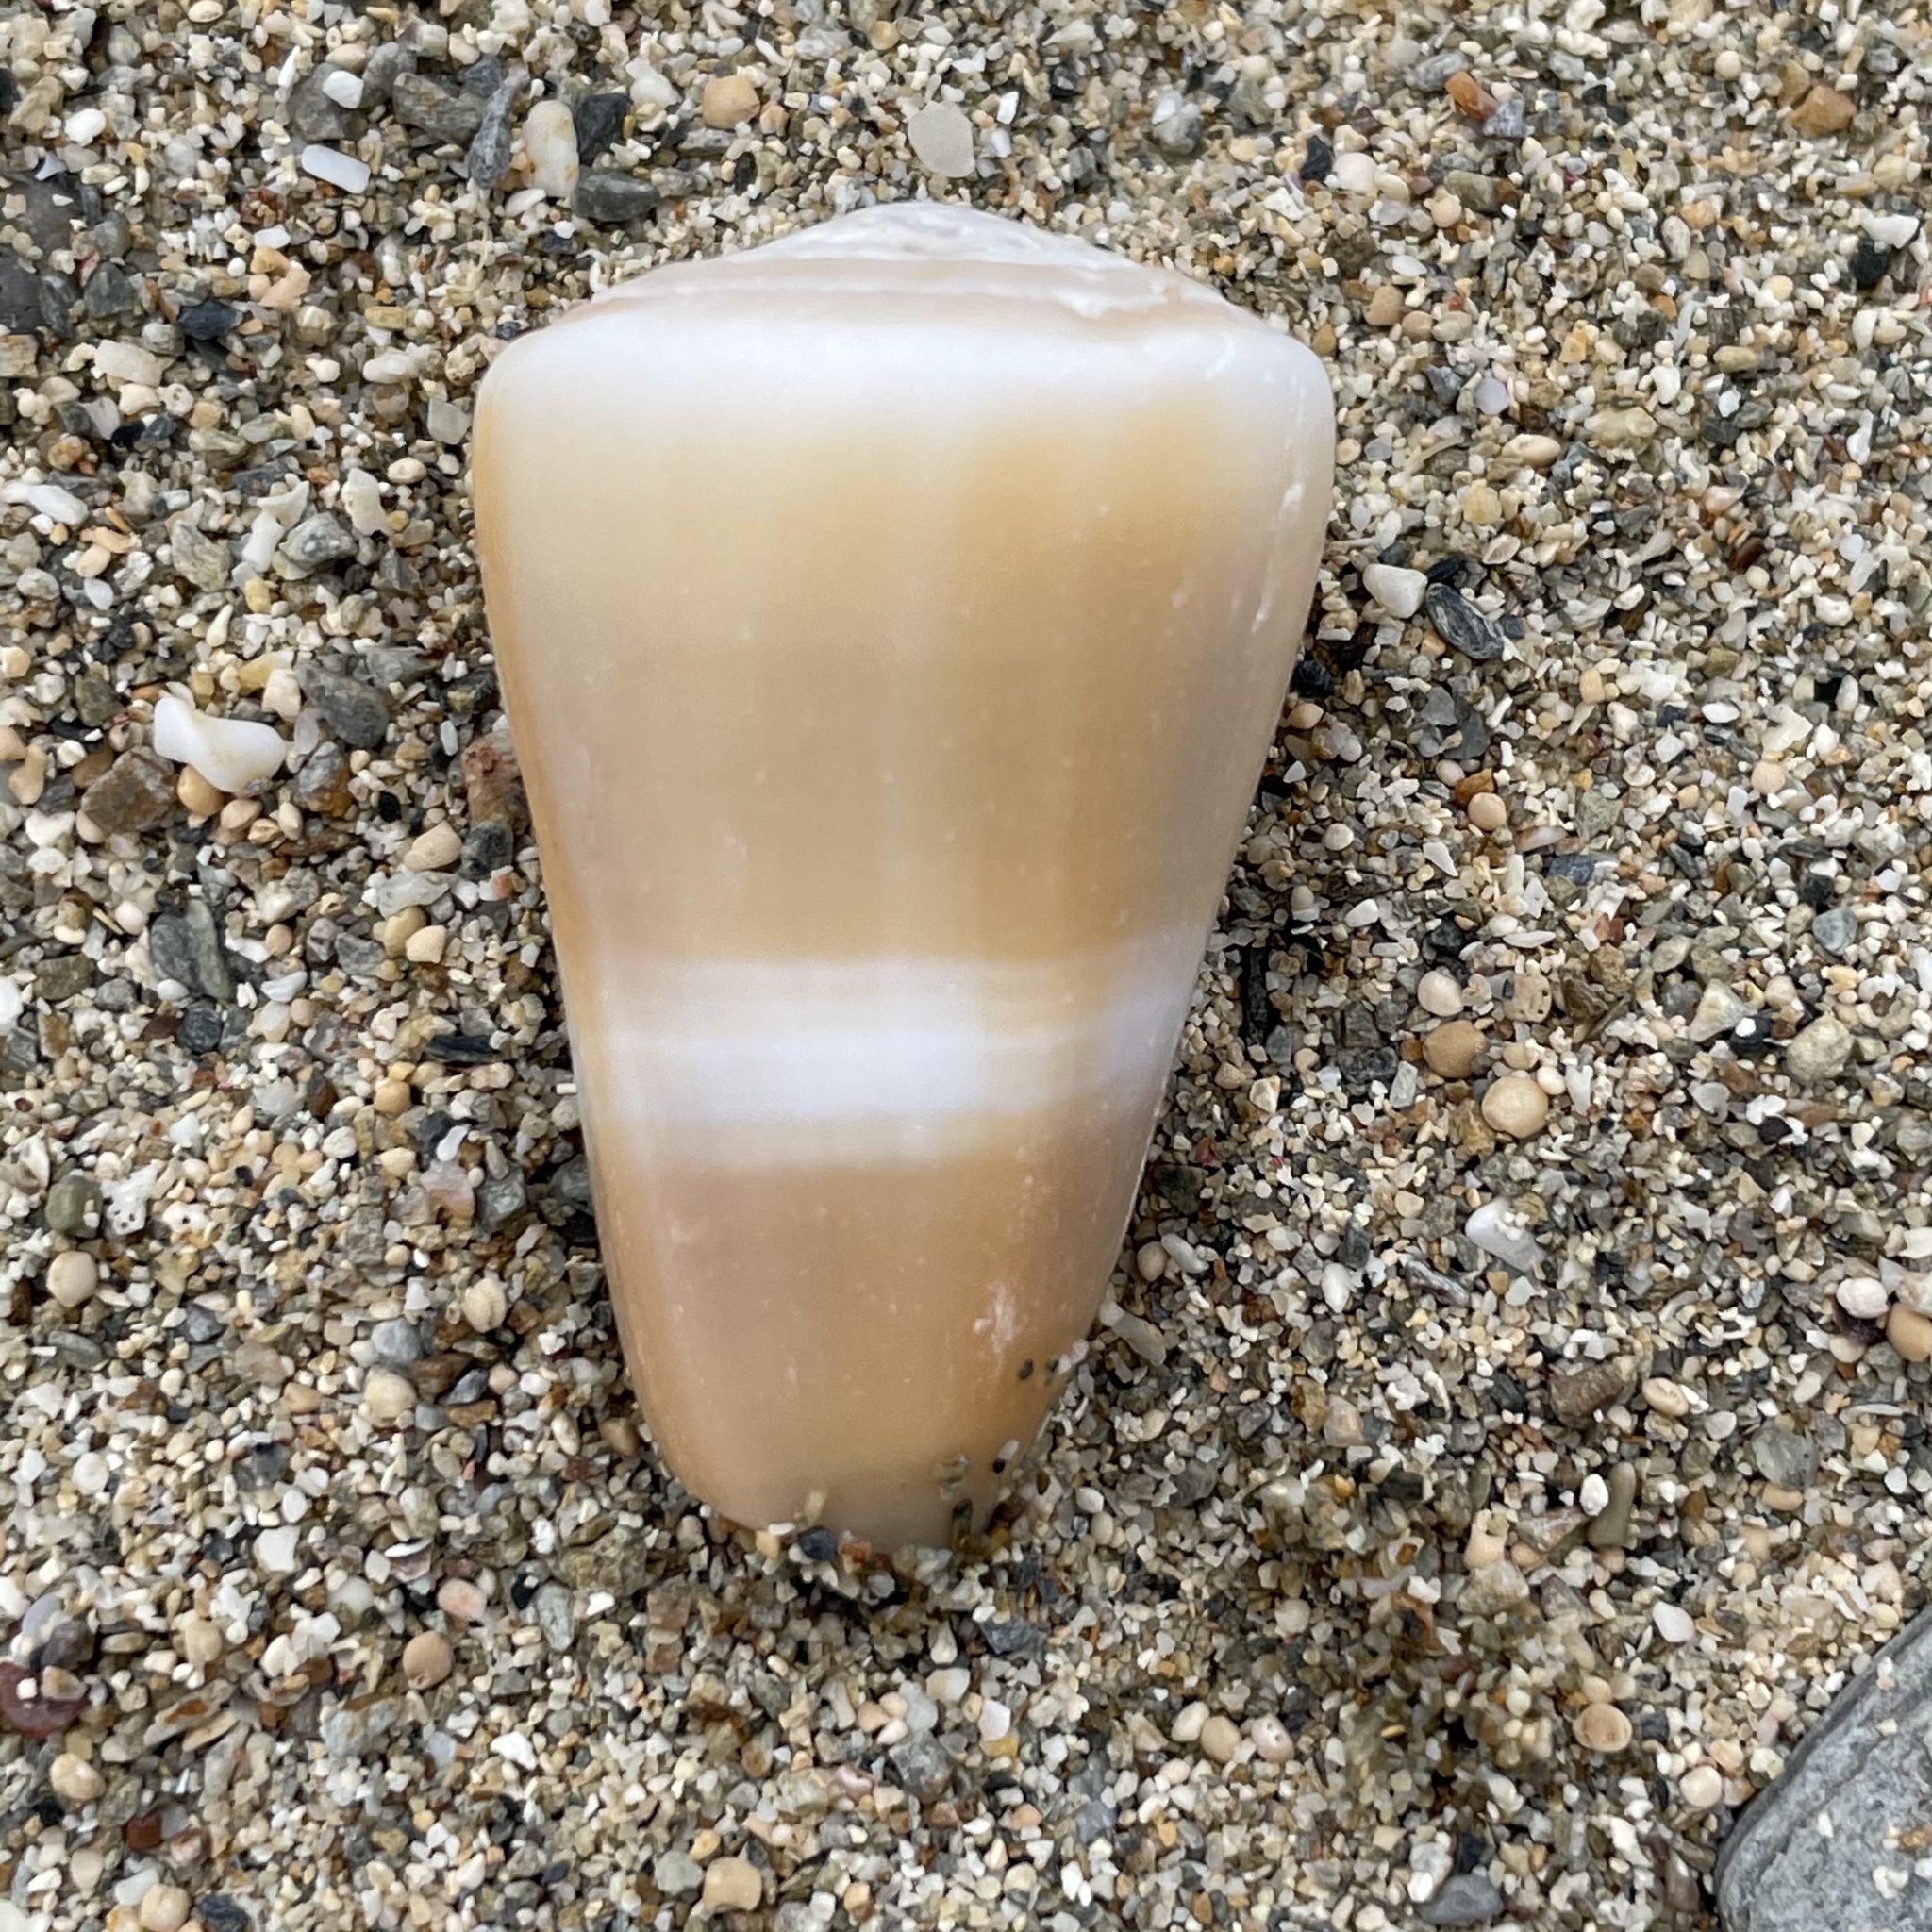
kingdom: Animalia
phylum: Mollusca
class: Gastropoda
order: Neogastropoda
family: Conidae
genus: Conus
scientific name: Conus flavidus
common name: Golden-yellow cone
